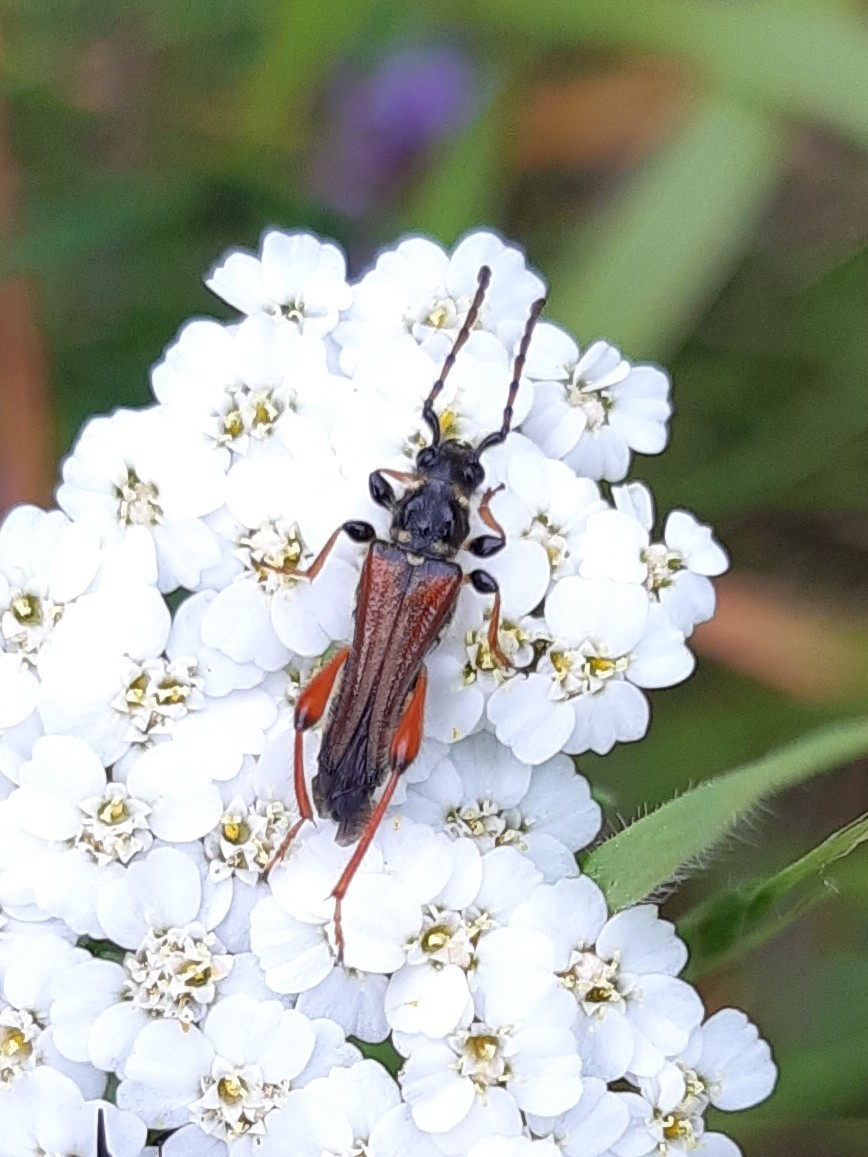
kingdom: Animalia
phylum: Arthropoda
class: Insecta
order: Coleoptera
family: Cerambycidae
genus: Stenopterus
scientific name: Stenopterus rufus
